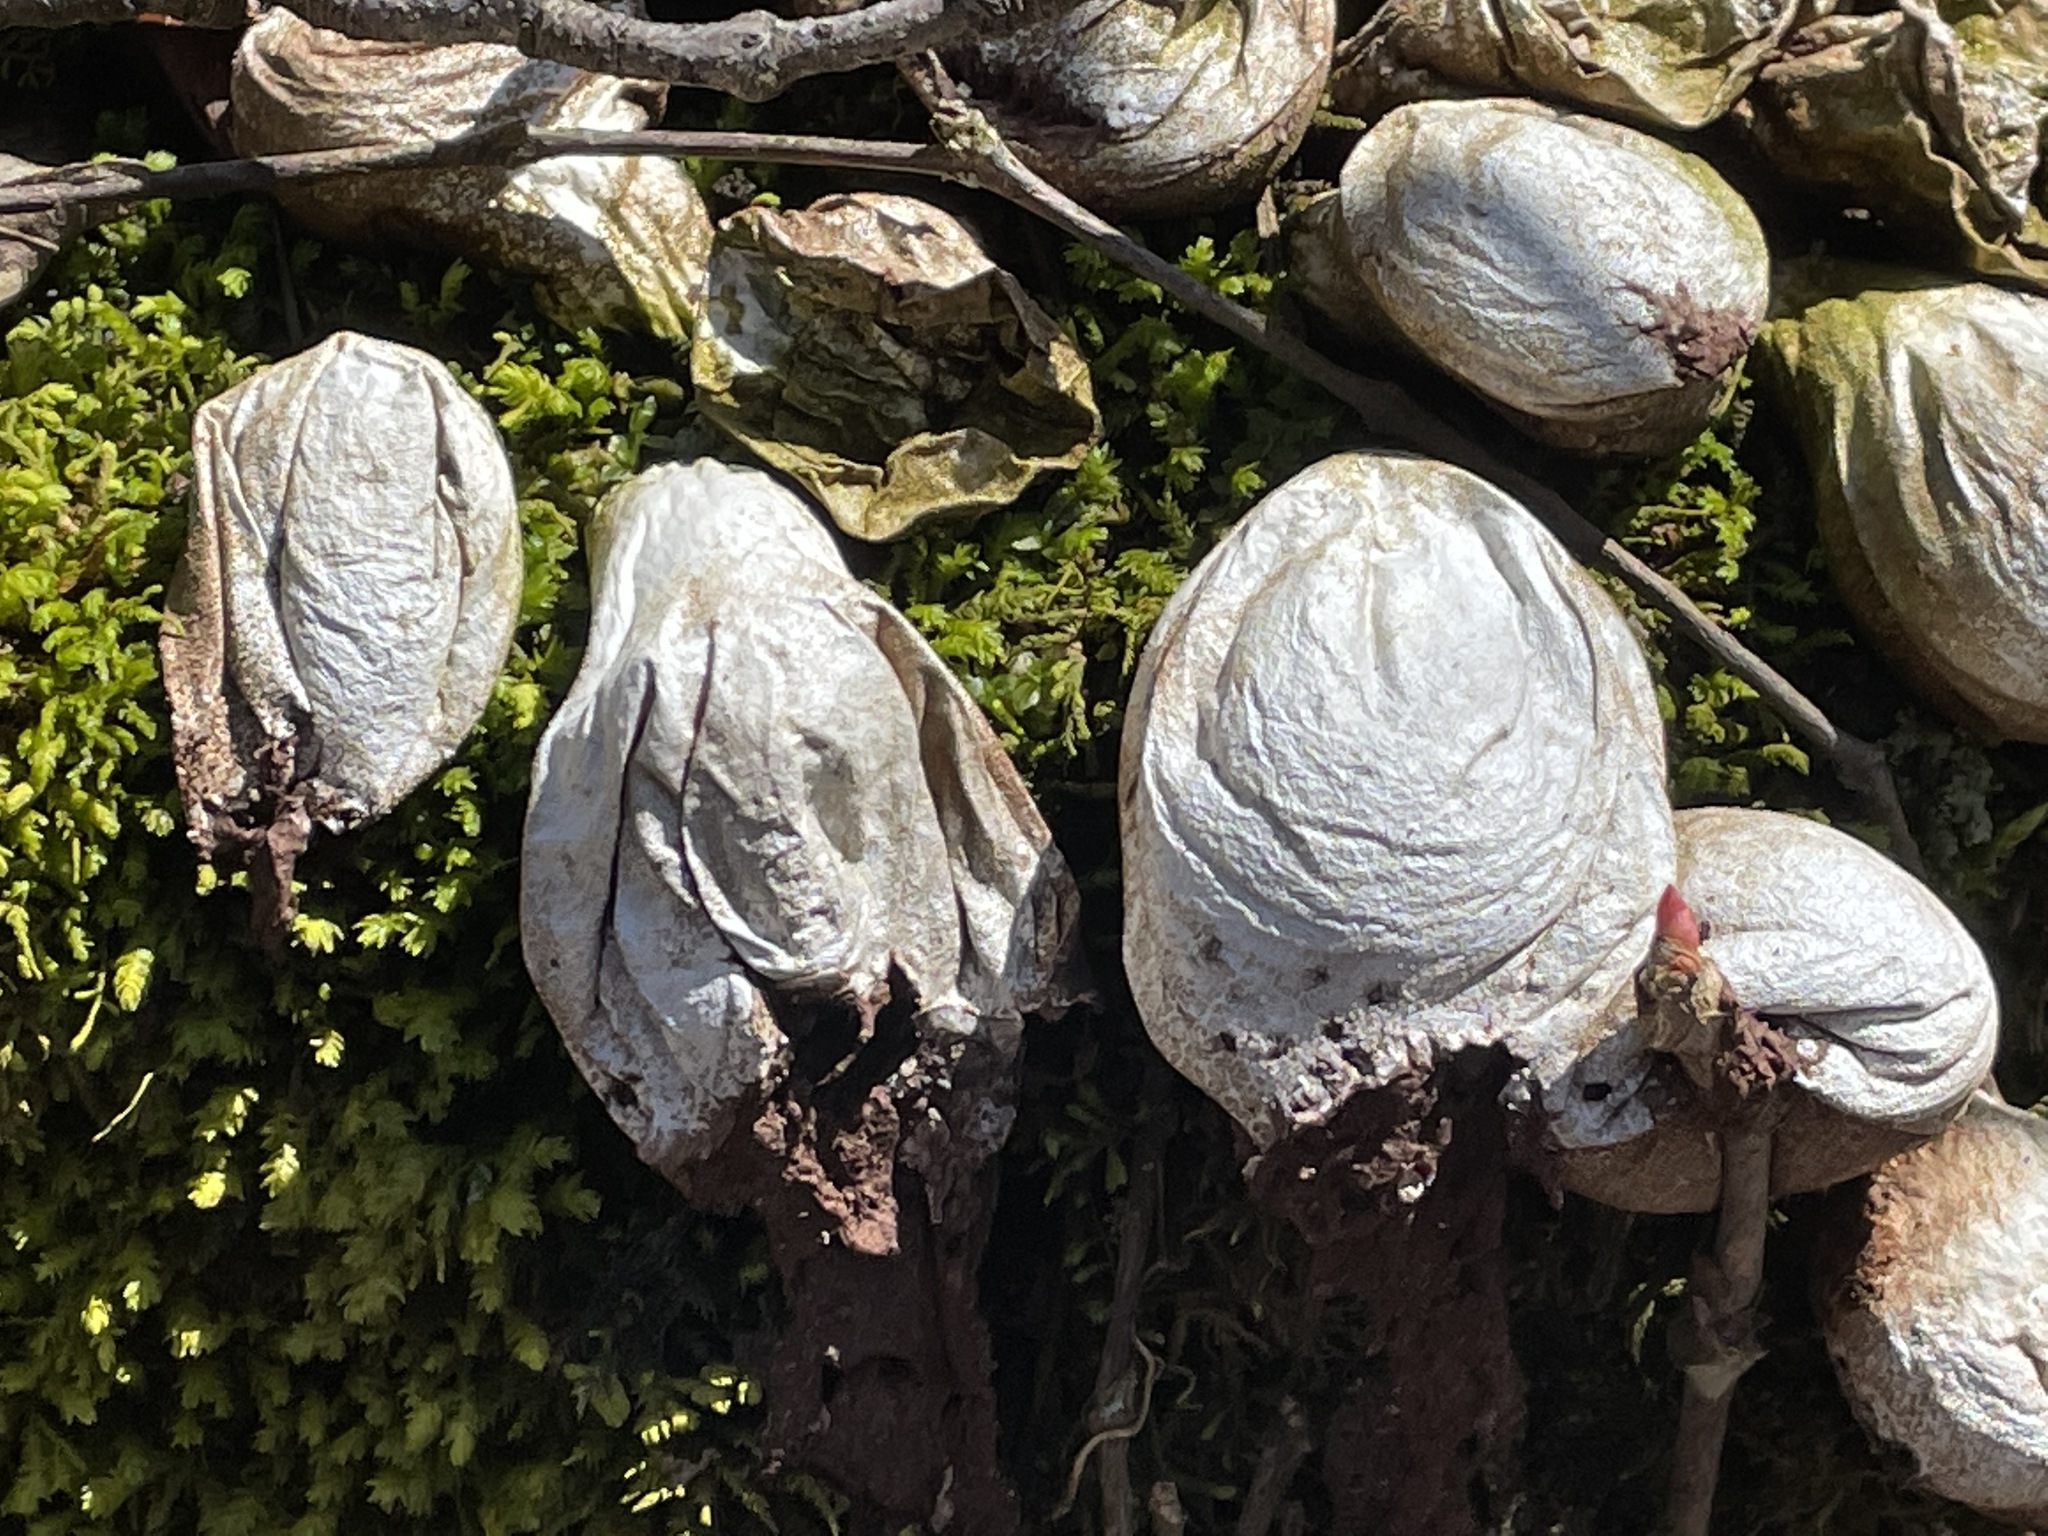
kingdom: Fungi
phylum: Basidiomycota
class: Agaricomycetes
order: Agaricales
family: Lycoperdaceae
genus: Apioperdon
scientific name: Apioperdon pyriforme
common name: Pear-shaped puffball
